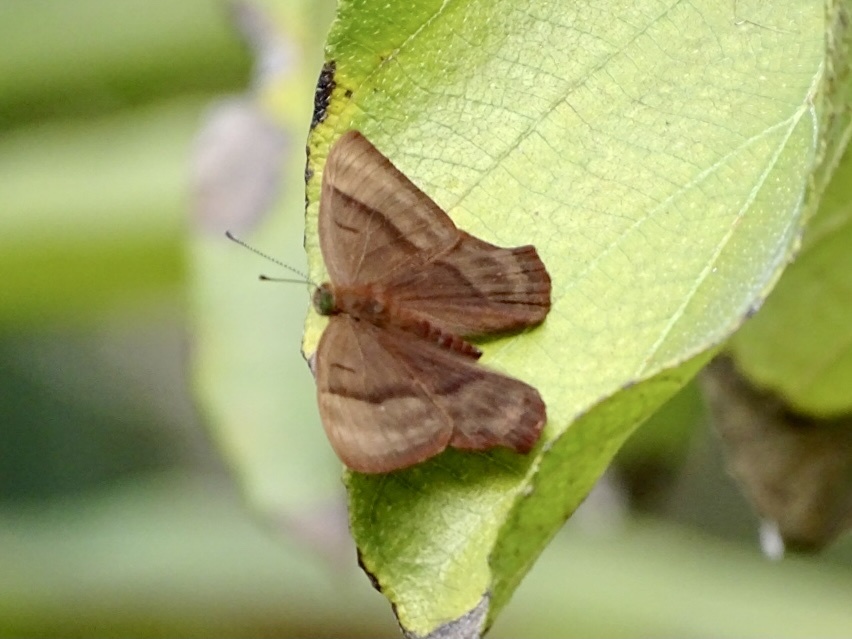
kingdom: Animalia
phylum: Arthropoda
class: Insecta
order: Lepidoptera
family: Lycaenidae
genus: Abisara
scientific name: Abisara echeria
